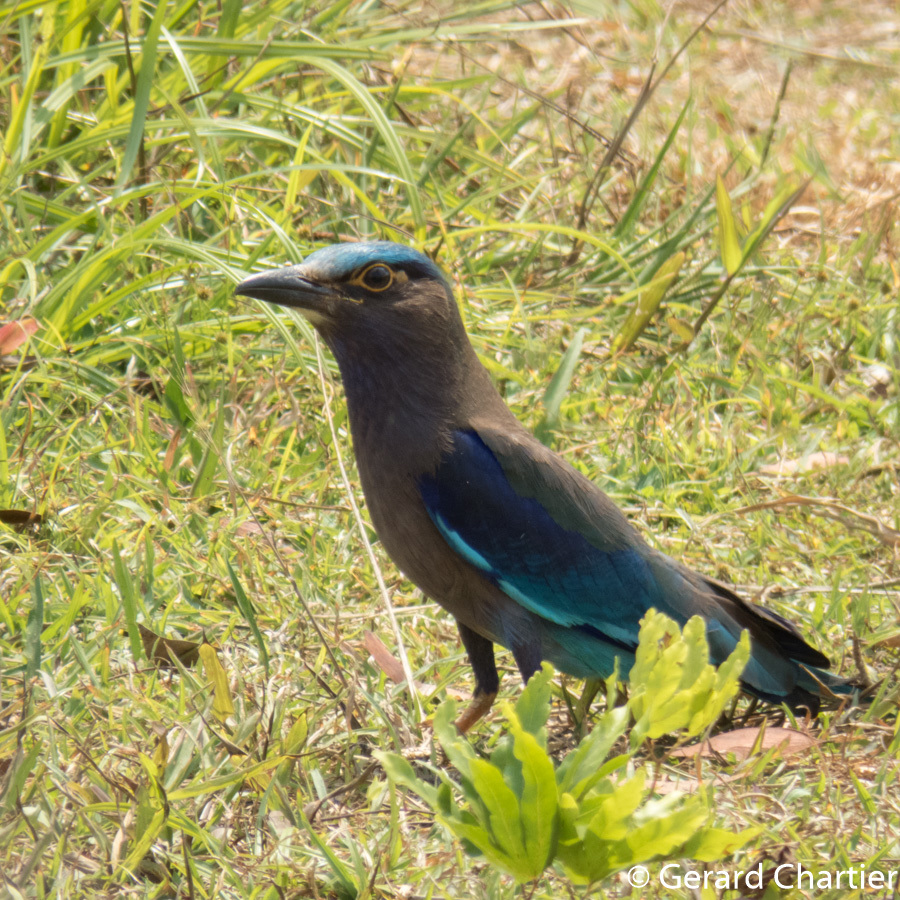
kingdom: Animalia
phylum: Chordata
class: Aves
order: Coraciiformes
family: Coraciidae
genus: Coracias
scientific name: Coracias affinis
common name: Indochinese roller
